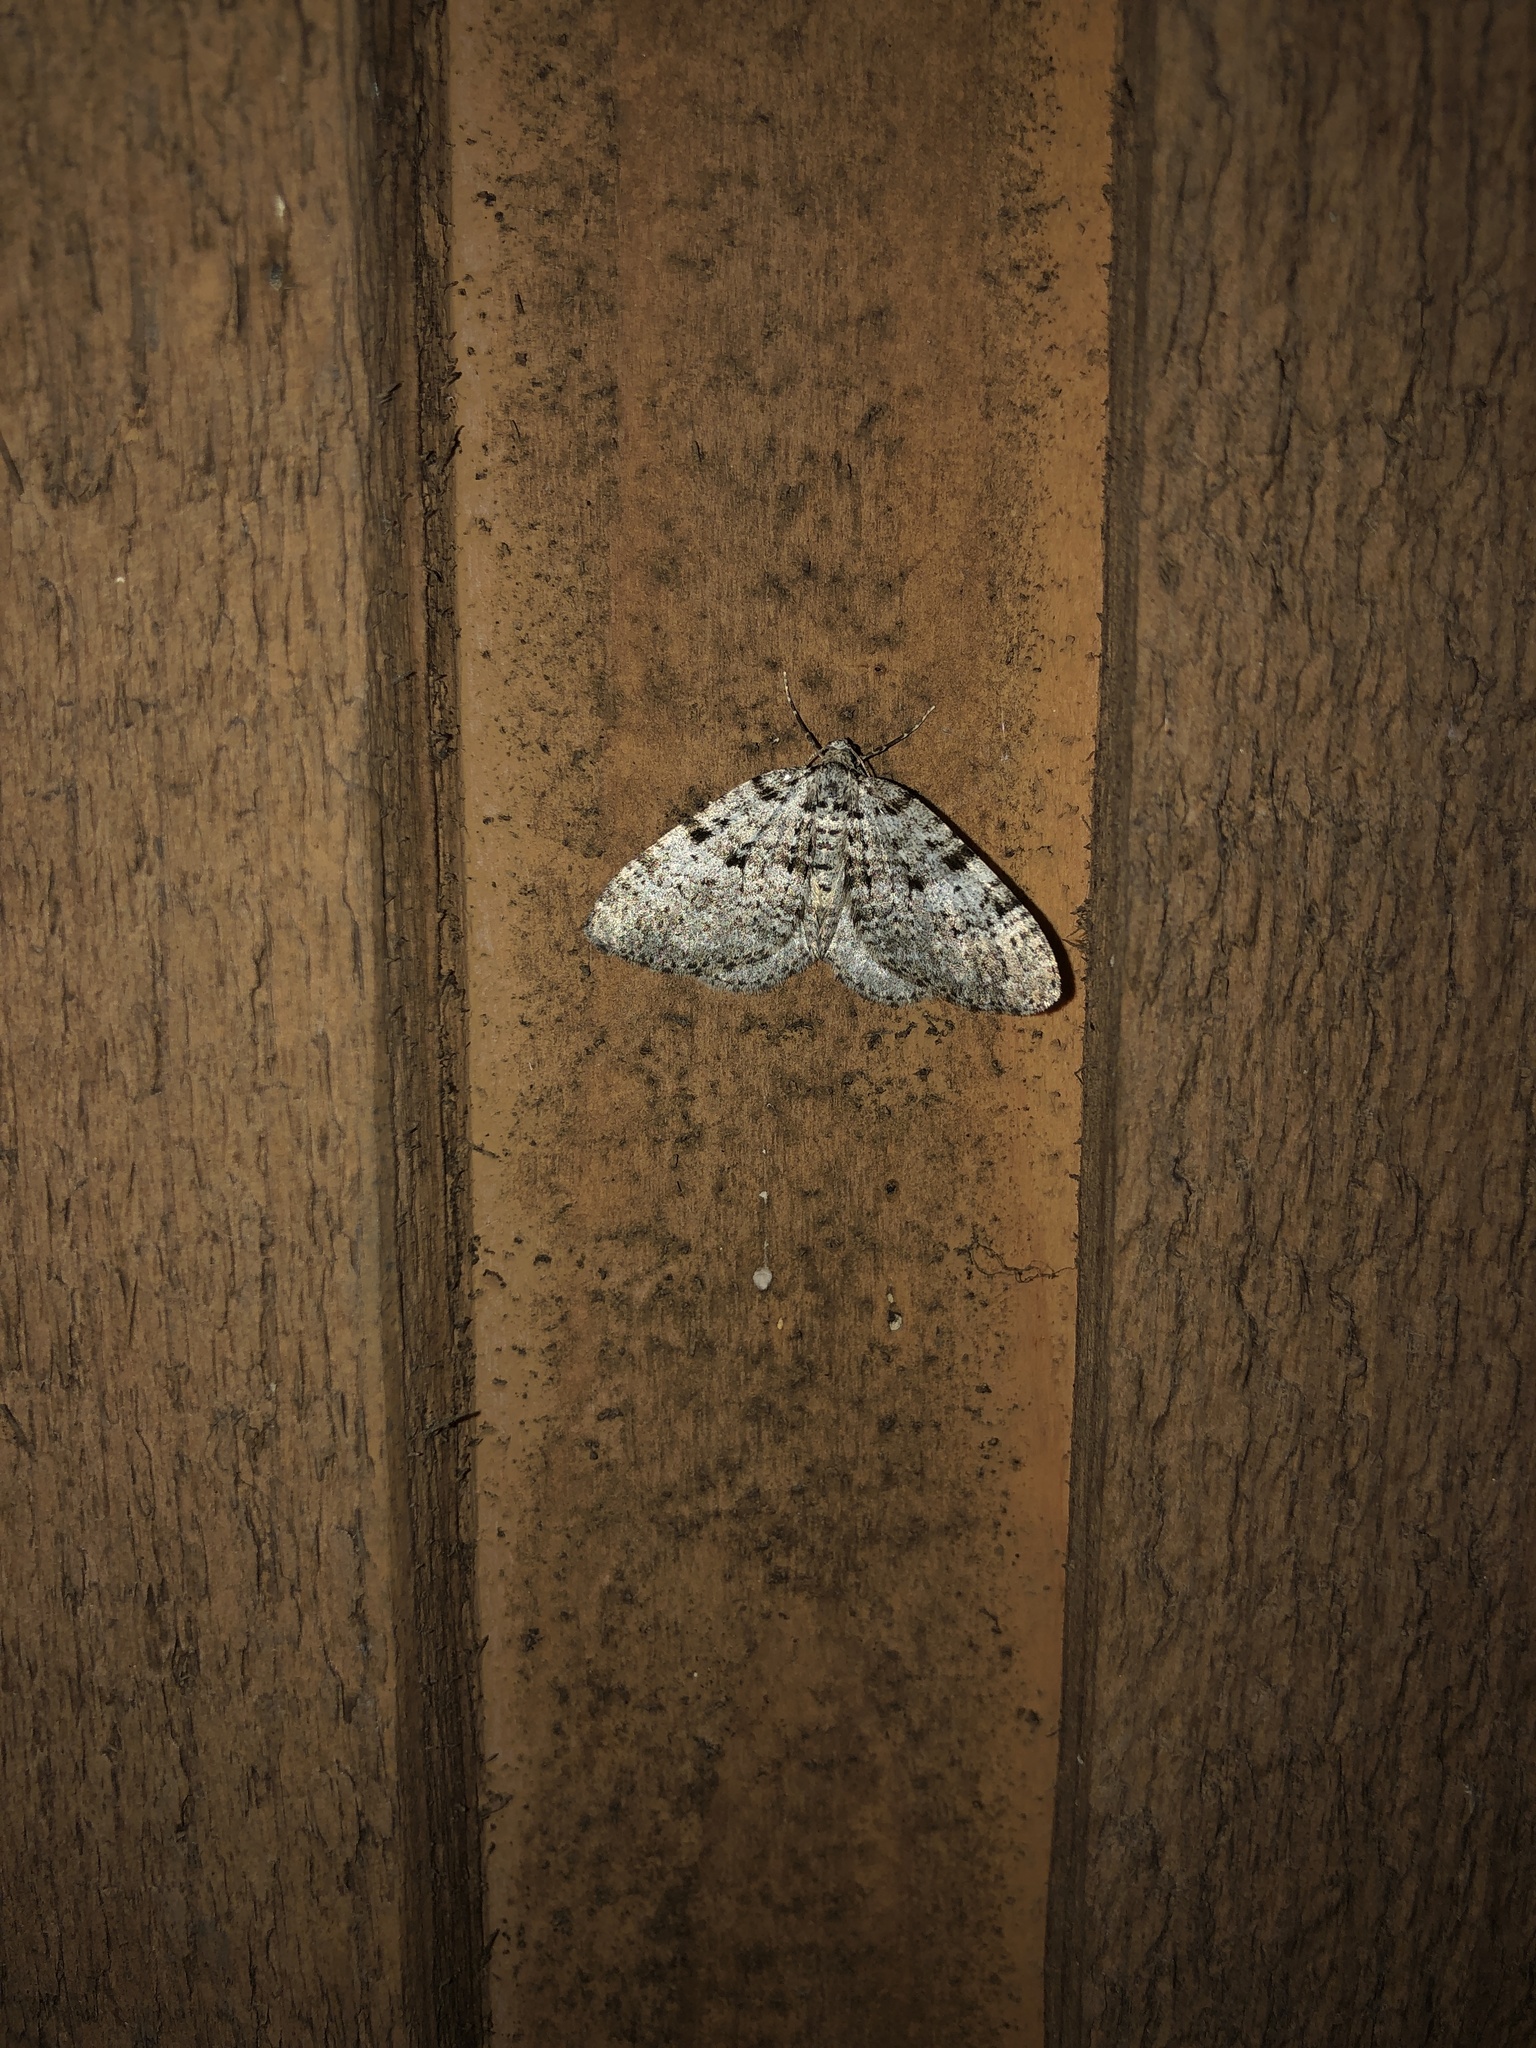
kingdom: Animalia
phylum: Arthropoda
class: Insecta
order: Lepidoptera
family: Geometridae
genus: Perizoma
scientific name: Perizoma curvilinea
